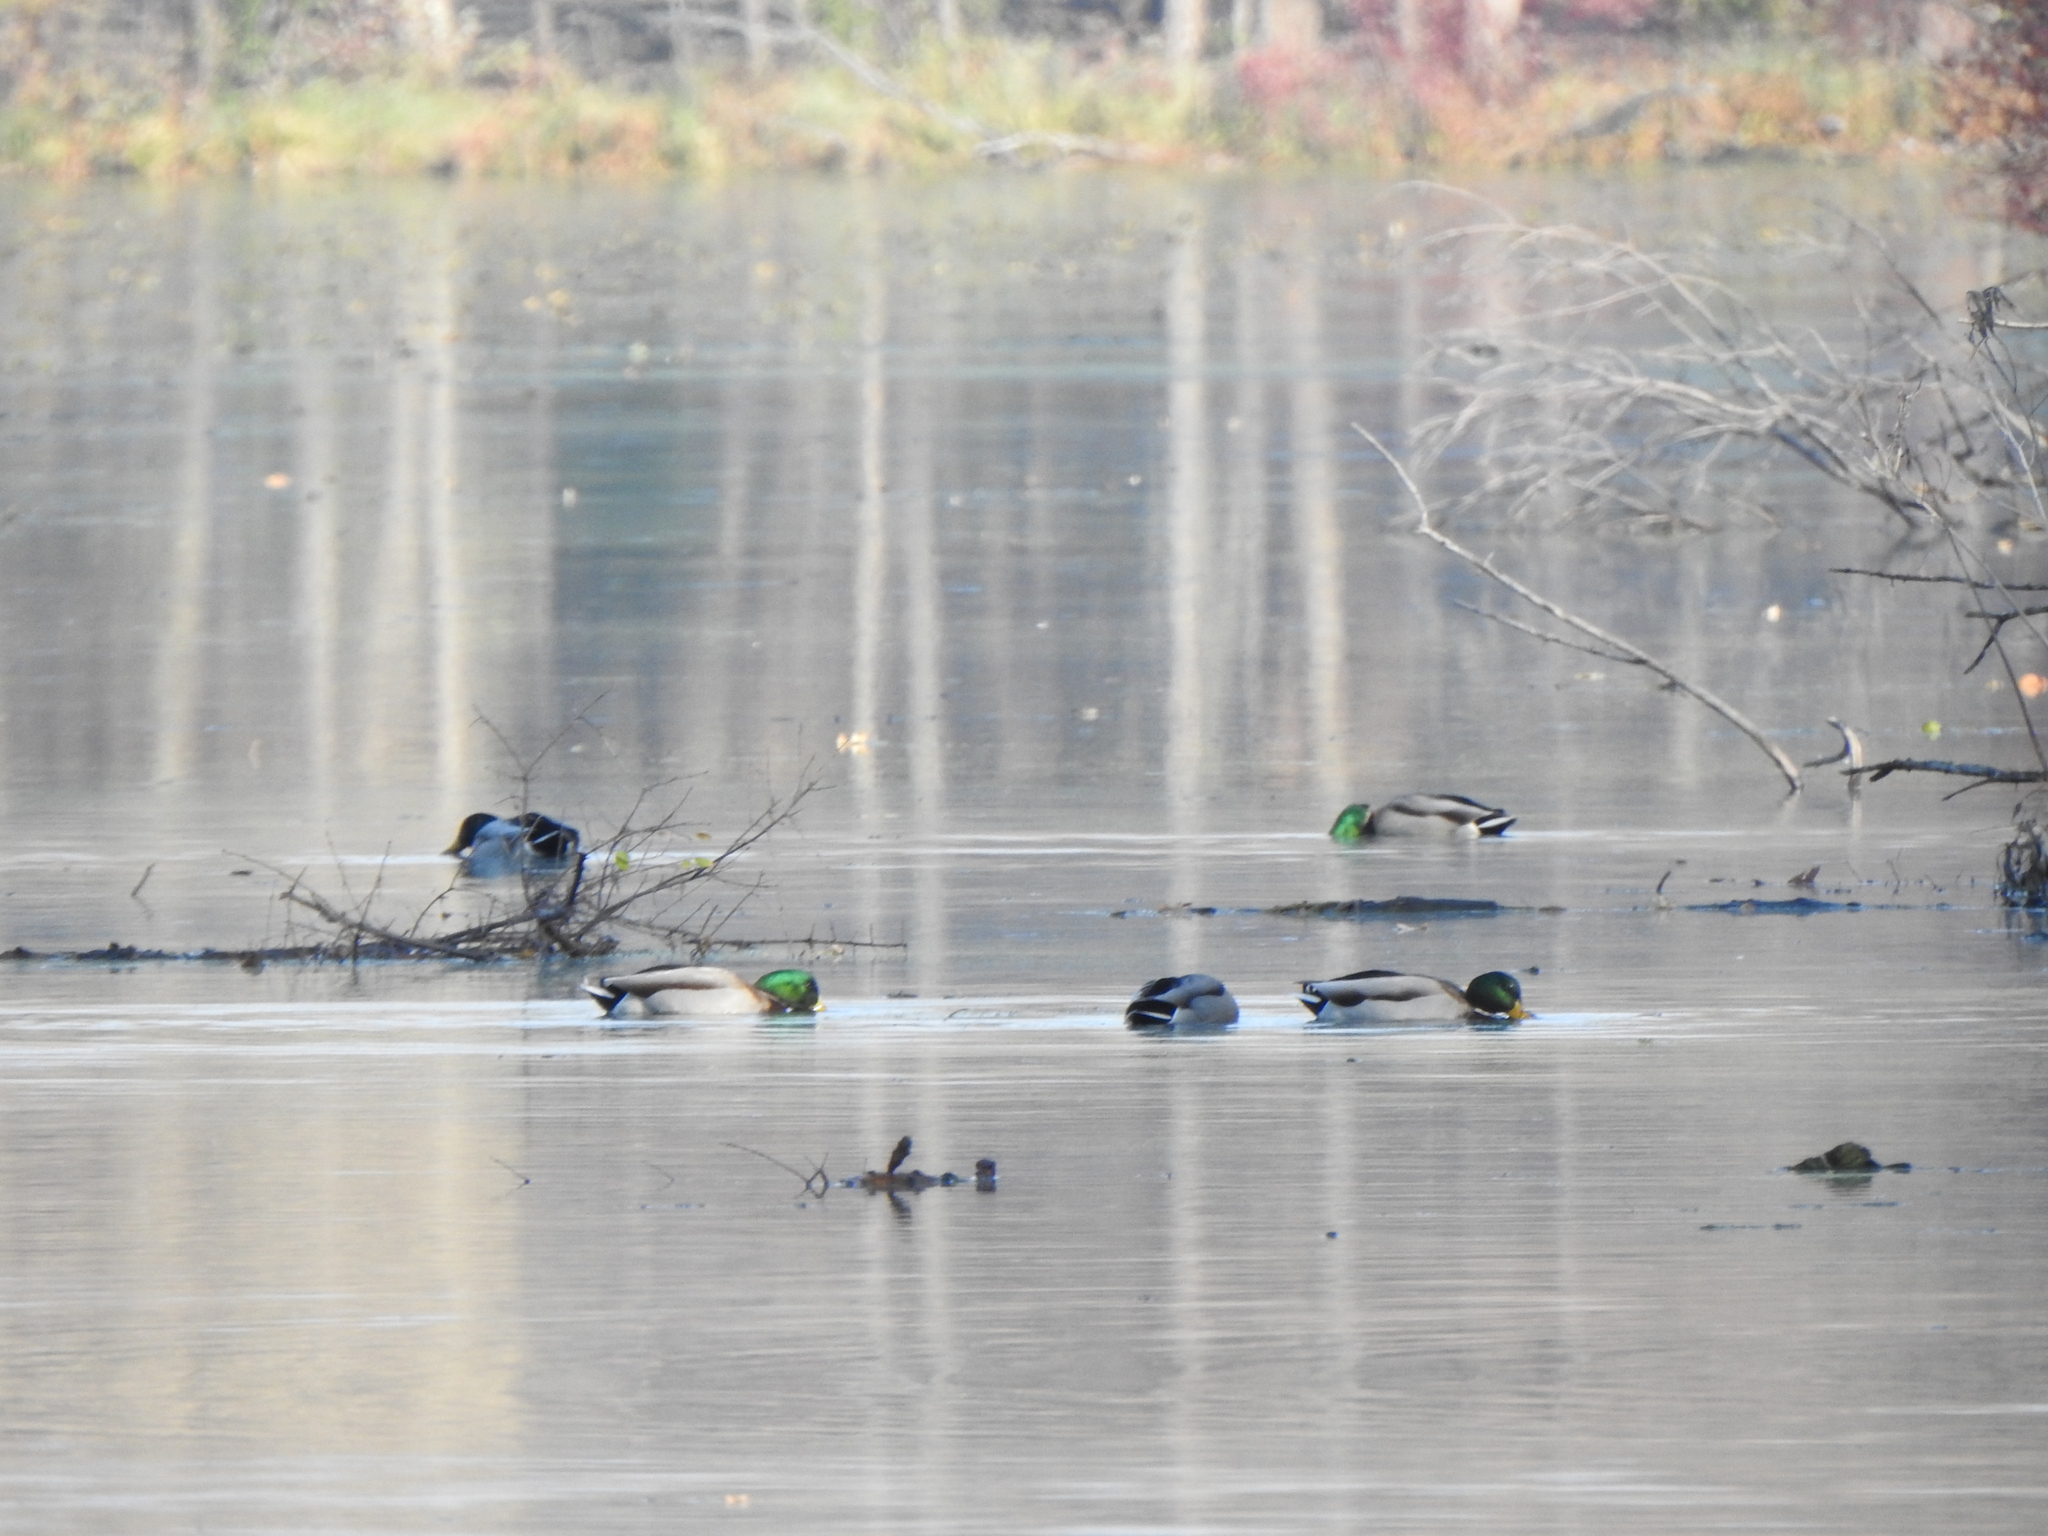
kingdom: Animalia
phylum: Chordata
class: Aves
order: Anseriformes
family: Anatidae
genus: Anas
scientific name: Anas platyrhynchos
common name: Mallard
